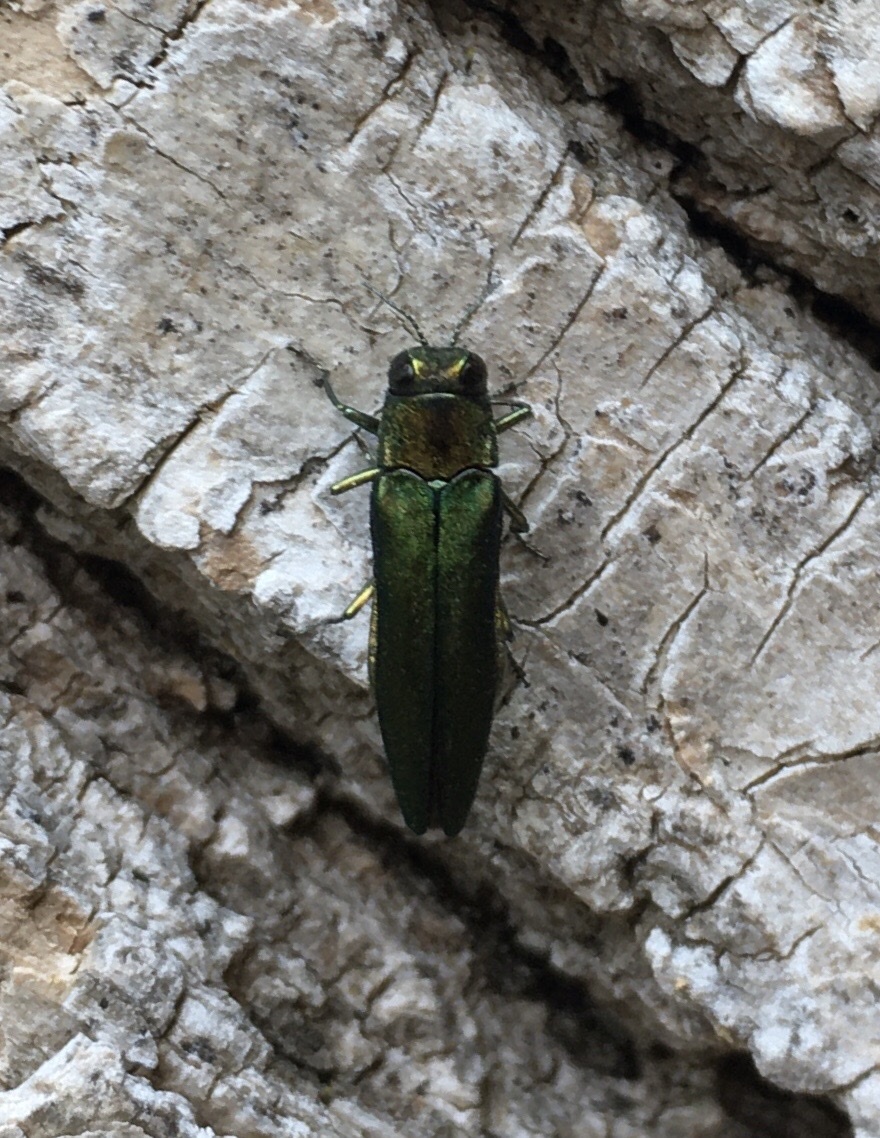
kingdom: Animalia
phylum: Arthropoda
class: Insecta
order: Coleoptera
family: Buprestidae
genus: Agrilus
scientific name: Agrilus planipennis
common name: Emerald ash borer
